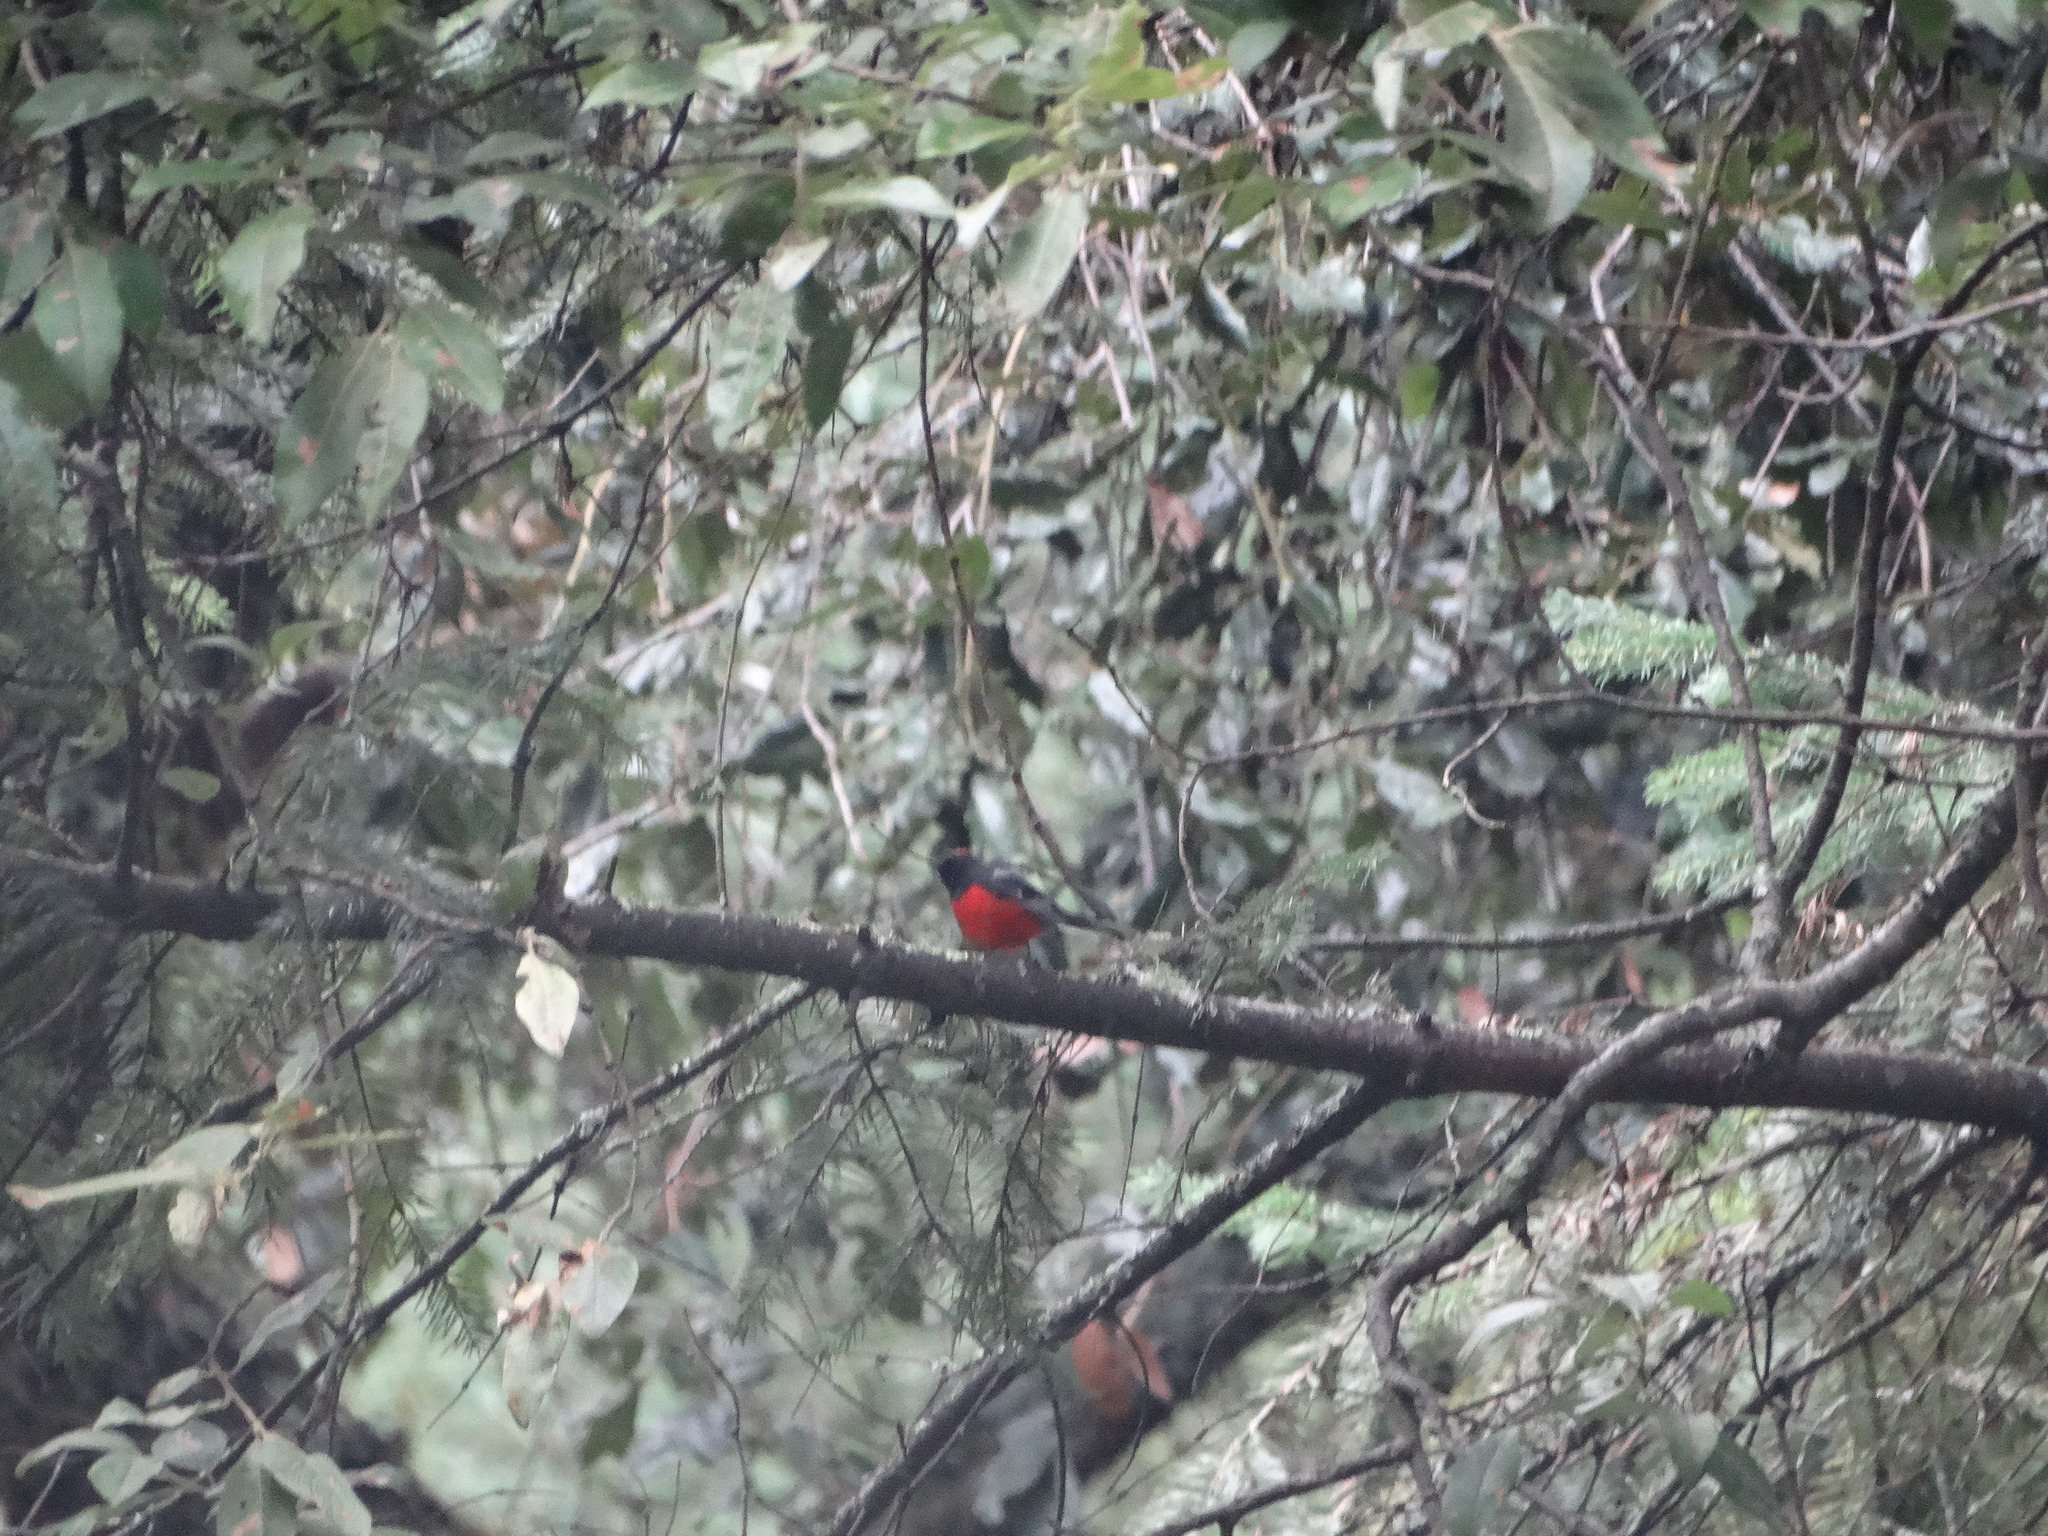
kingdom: Animalia
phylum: Chordata
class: Aves
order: Passeriformes
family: Parulidae
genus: Myioborus
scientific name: Myioborus miniatus
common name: Slate-throated redstart
